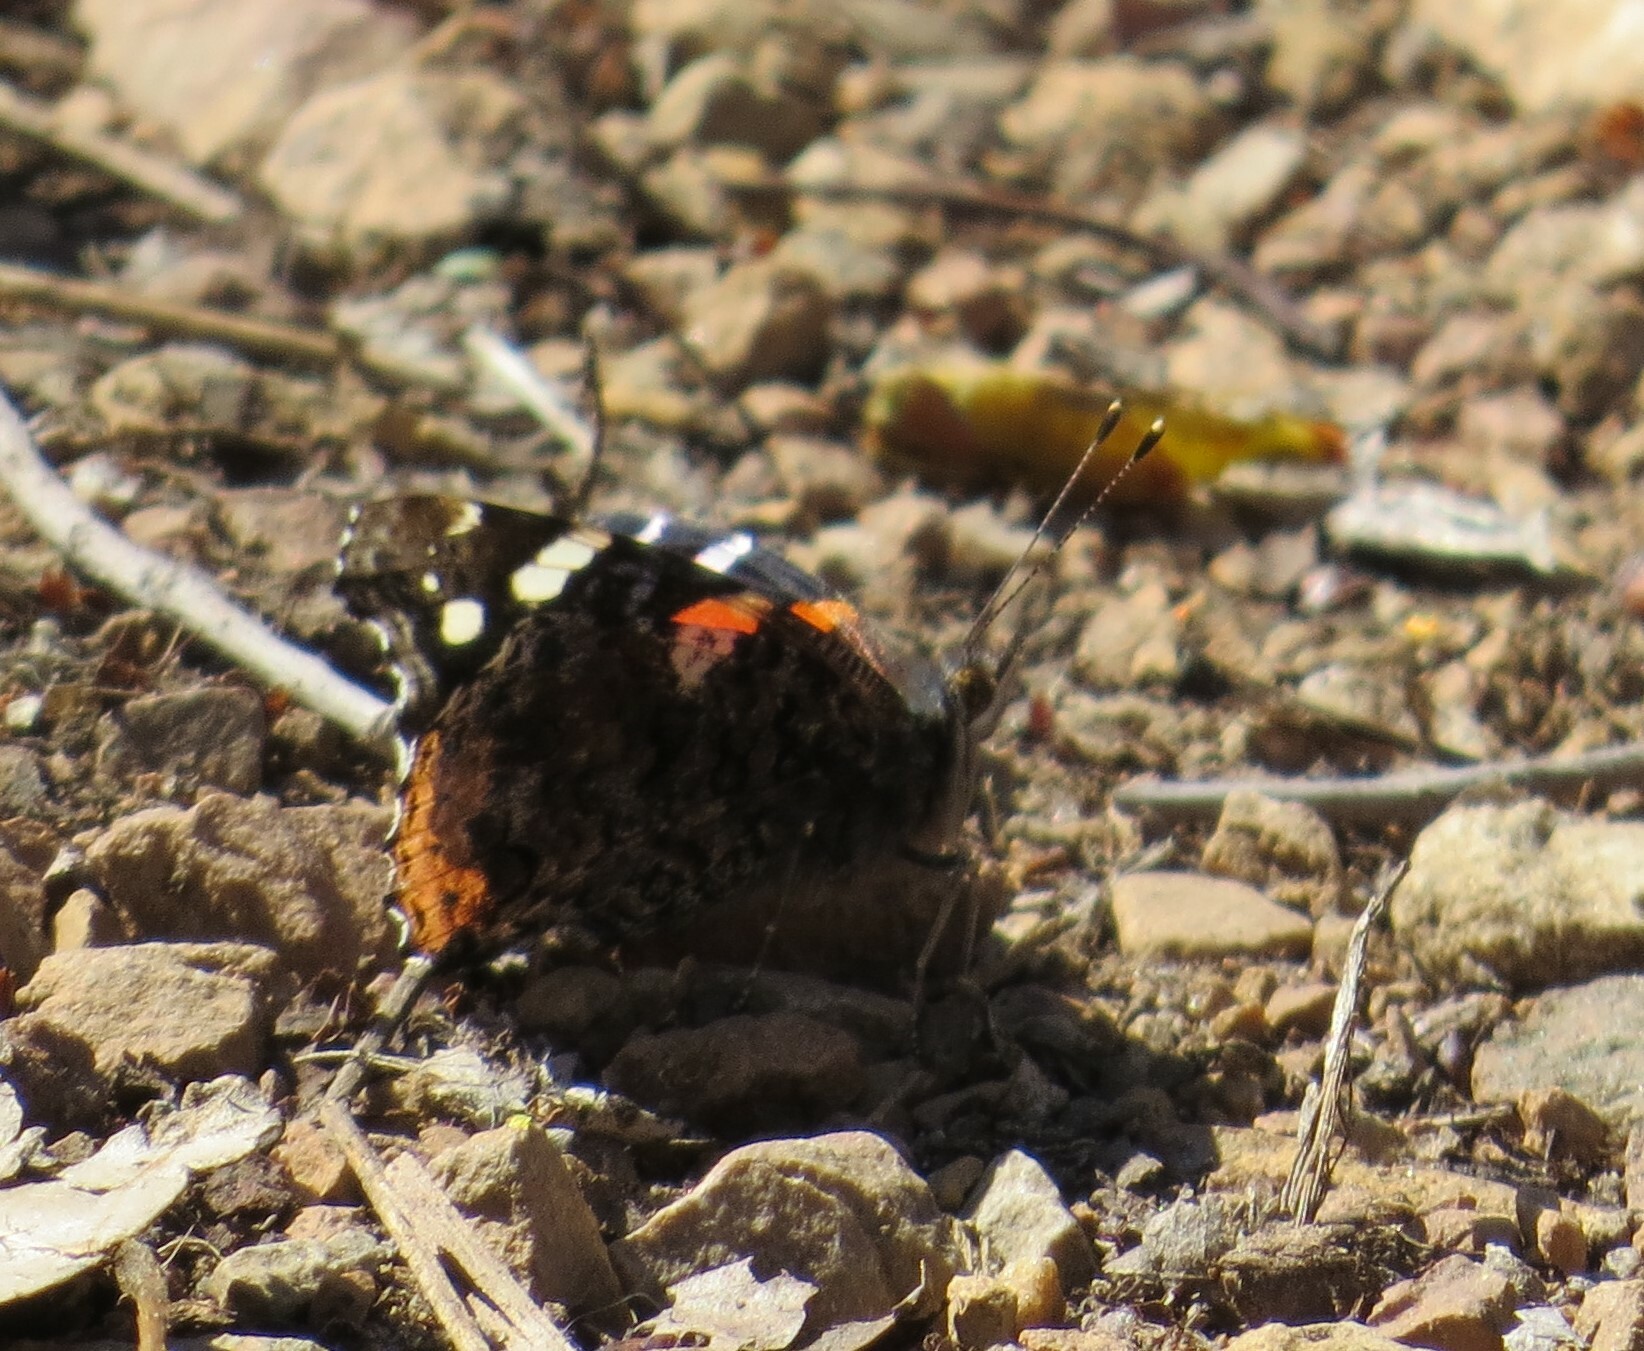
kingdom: Animalia
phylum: Arthropoda
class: Insecta
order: Lepidoptera
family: Nymphalidae
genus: Vanessa
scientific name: Vanessa atalanta
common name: Red admiral
